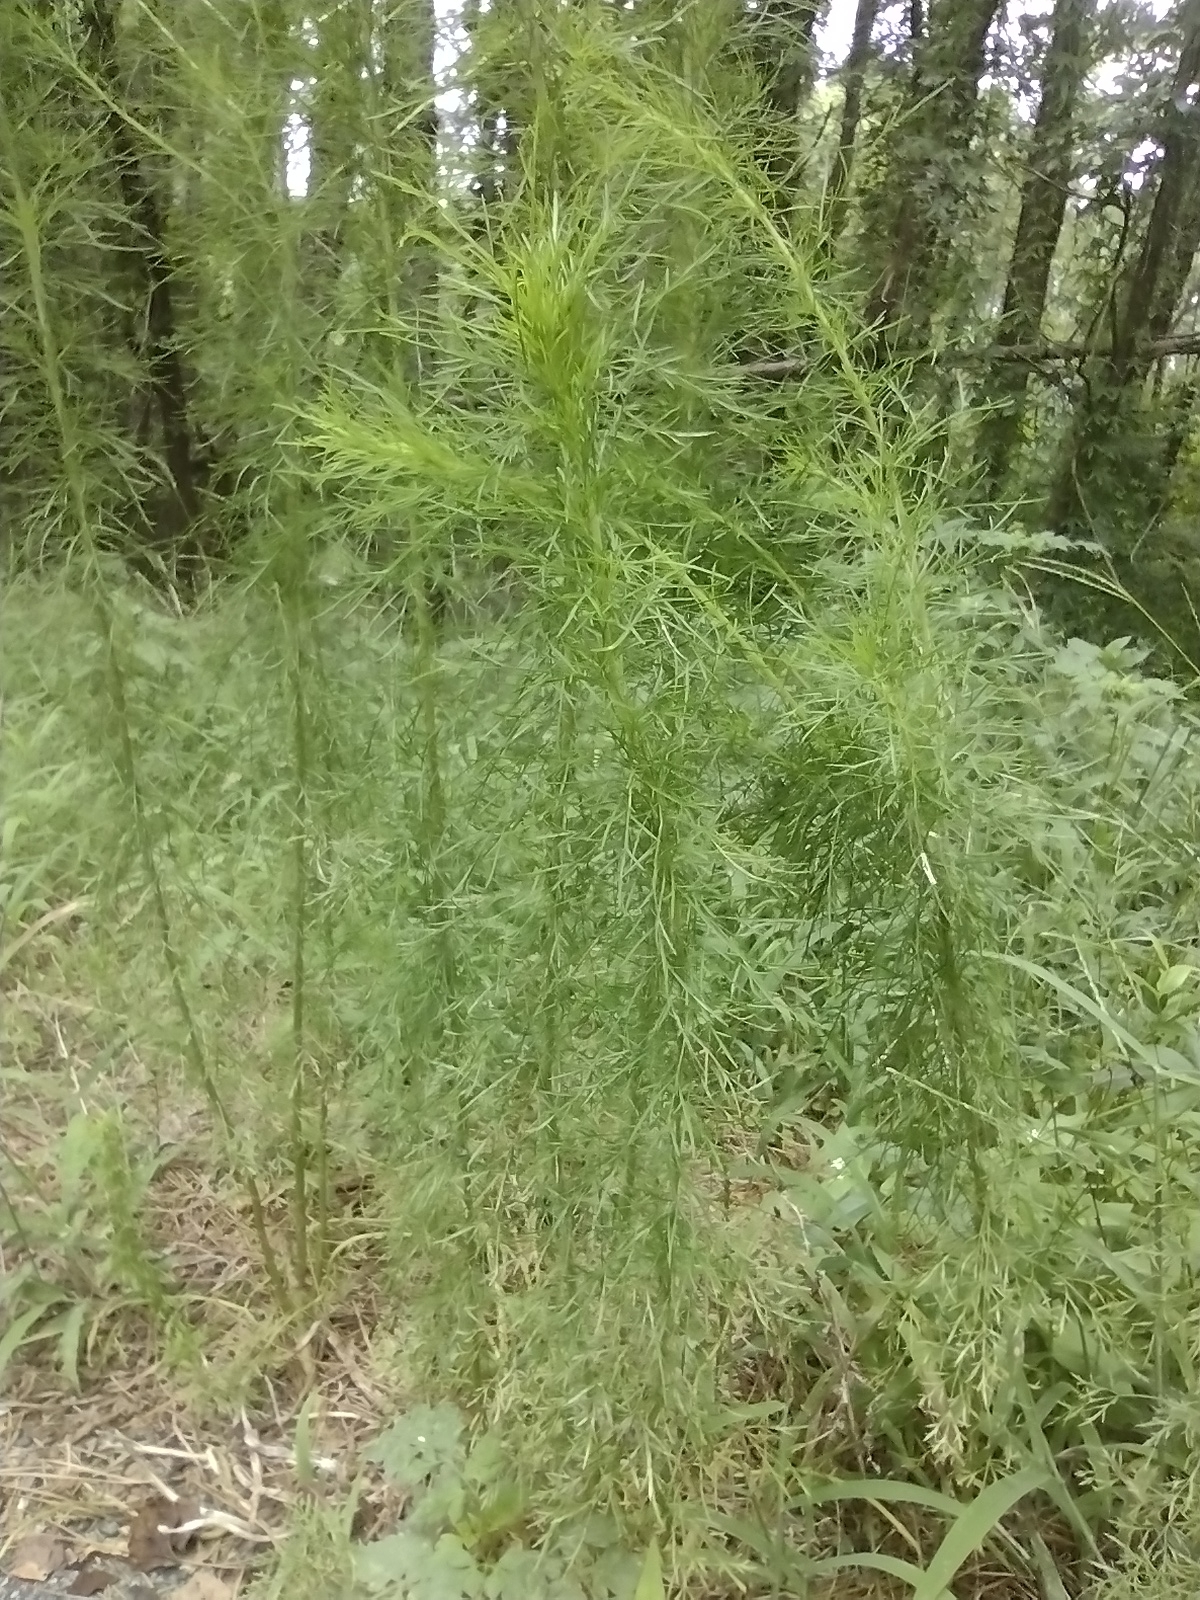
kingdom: Plantae
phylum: Tracheophyta
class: Magnoliopsida
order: Asterales
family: Asteraceae
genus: Eupatorium
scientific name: Eupatorium capillifolium
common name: Dog-fennel
